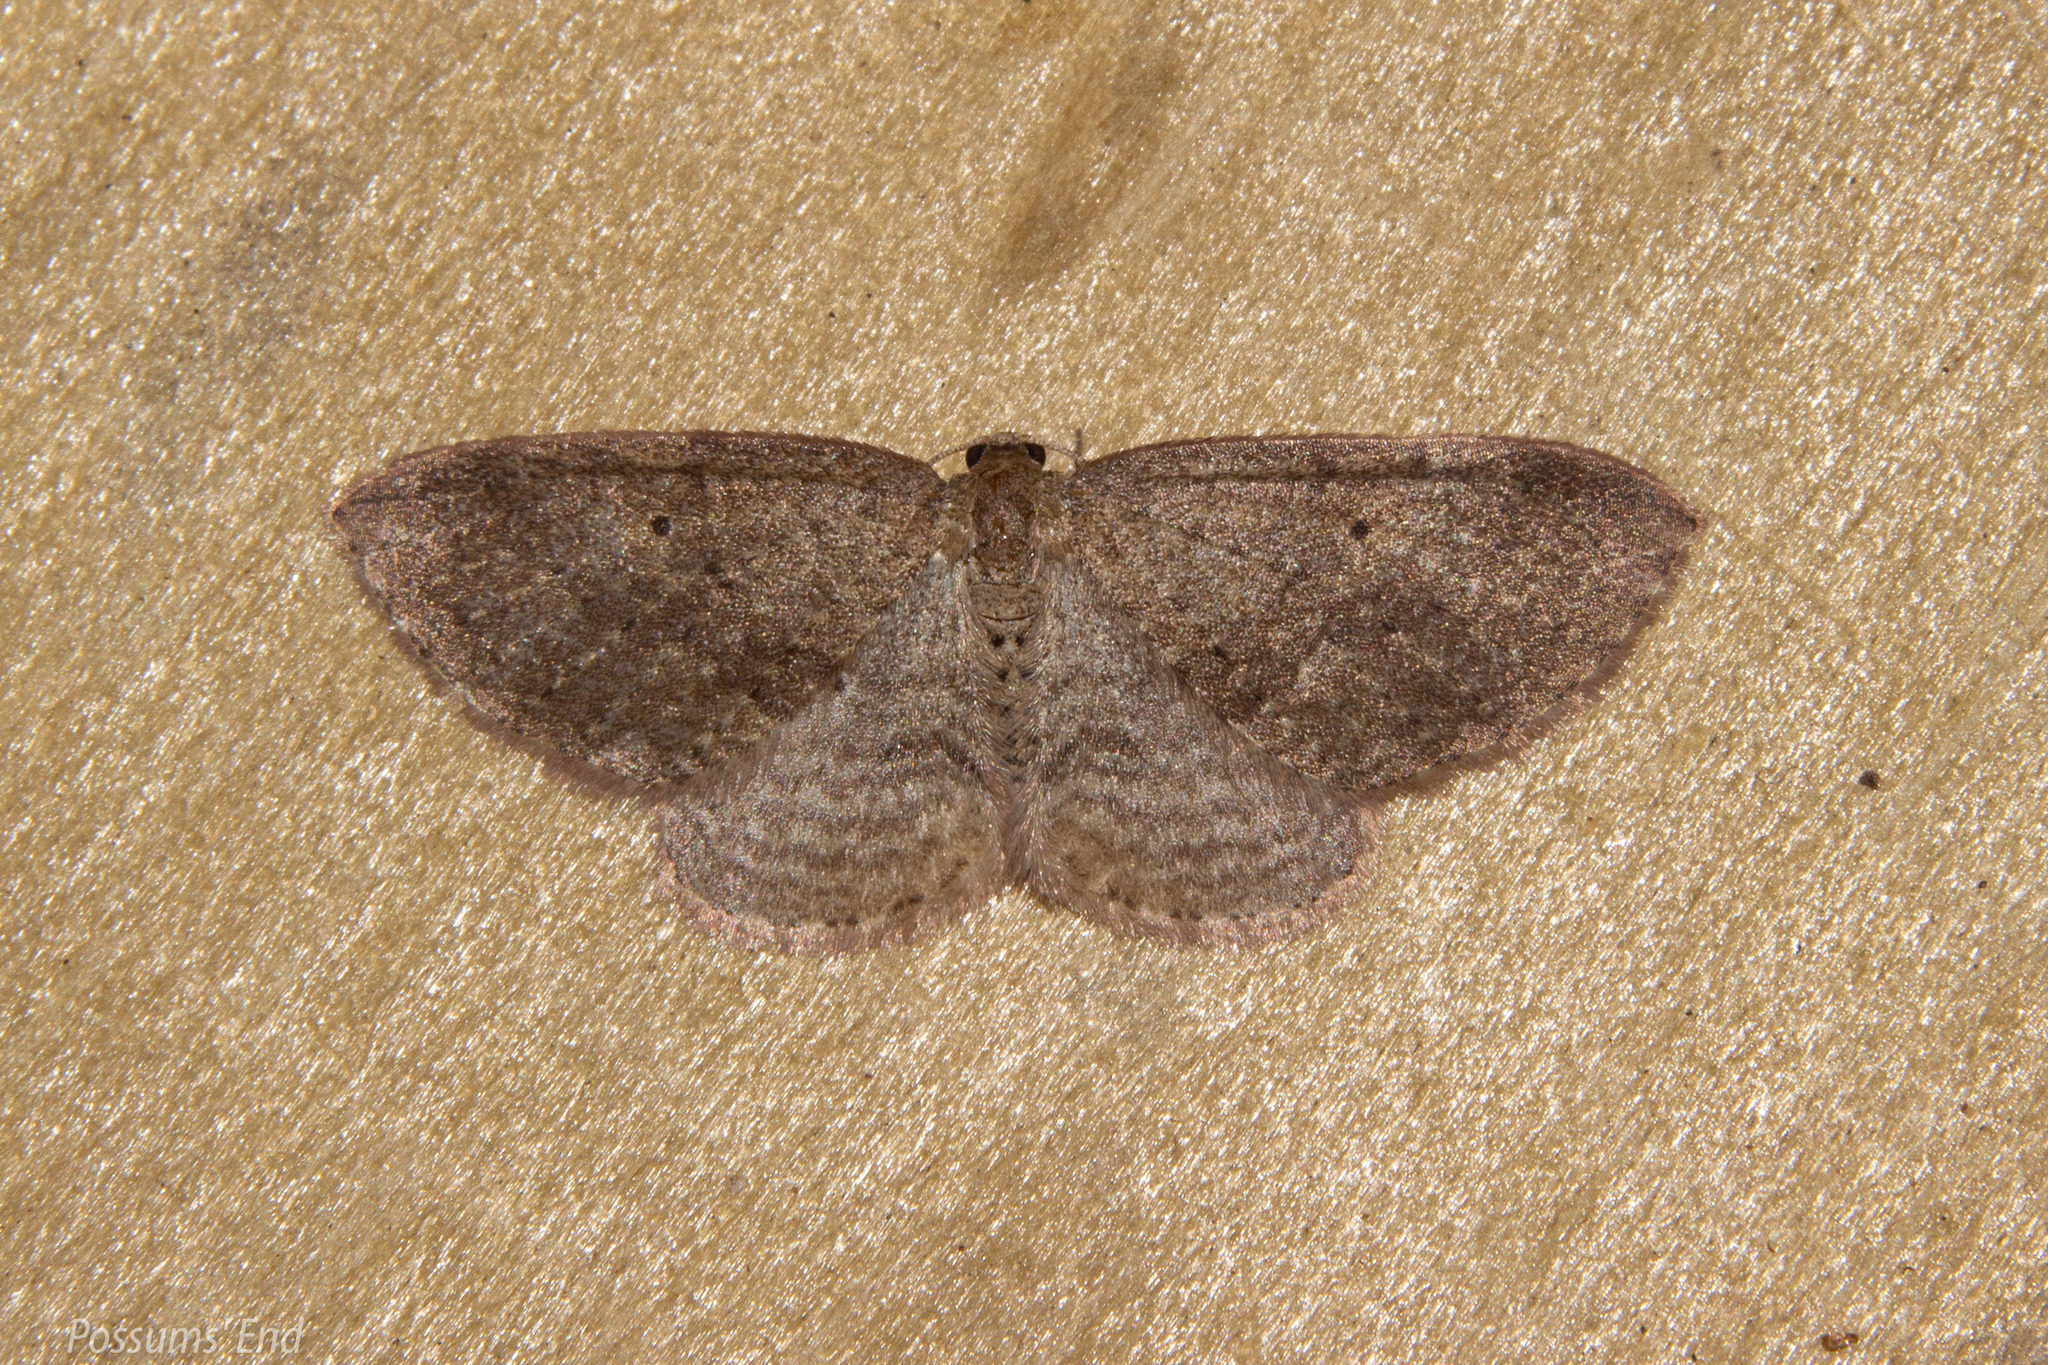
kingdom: Animalia
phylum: Arthropoda
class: Insecta
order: Lepidoptera
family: Geometridae
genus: Poecilasthena
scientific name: Poecilasthena schistaria
